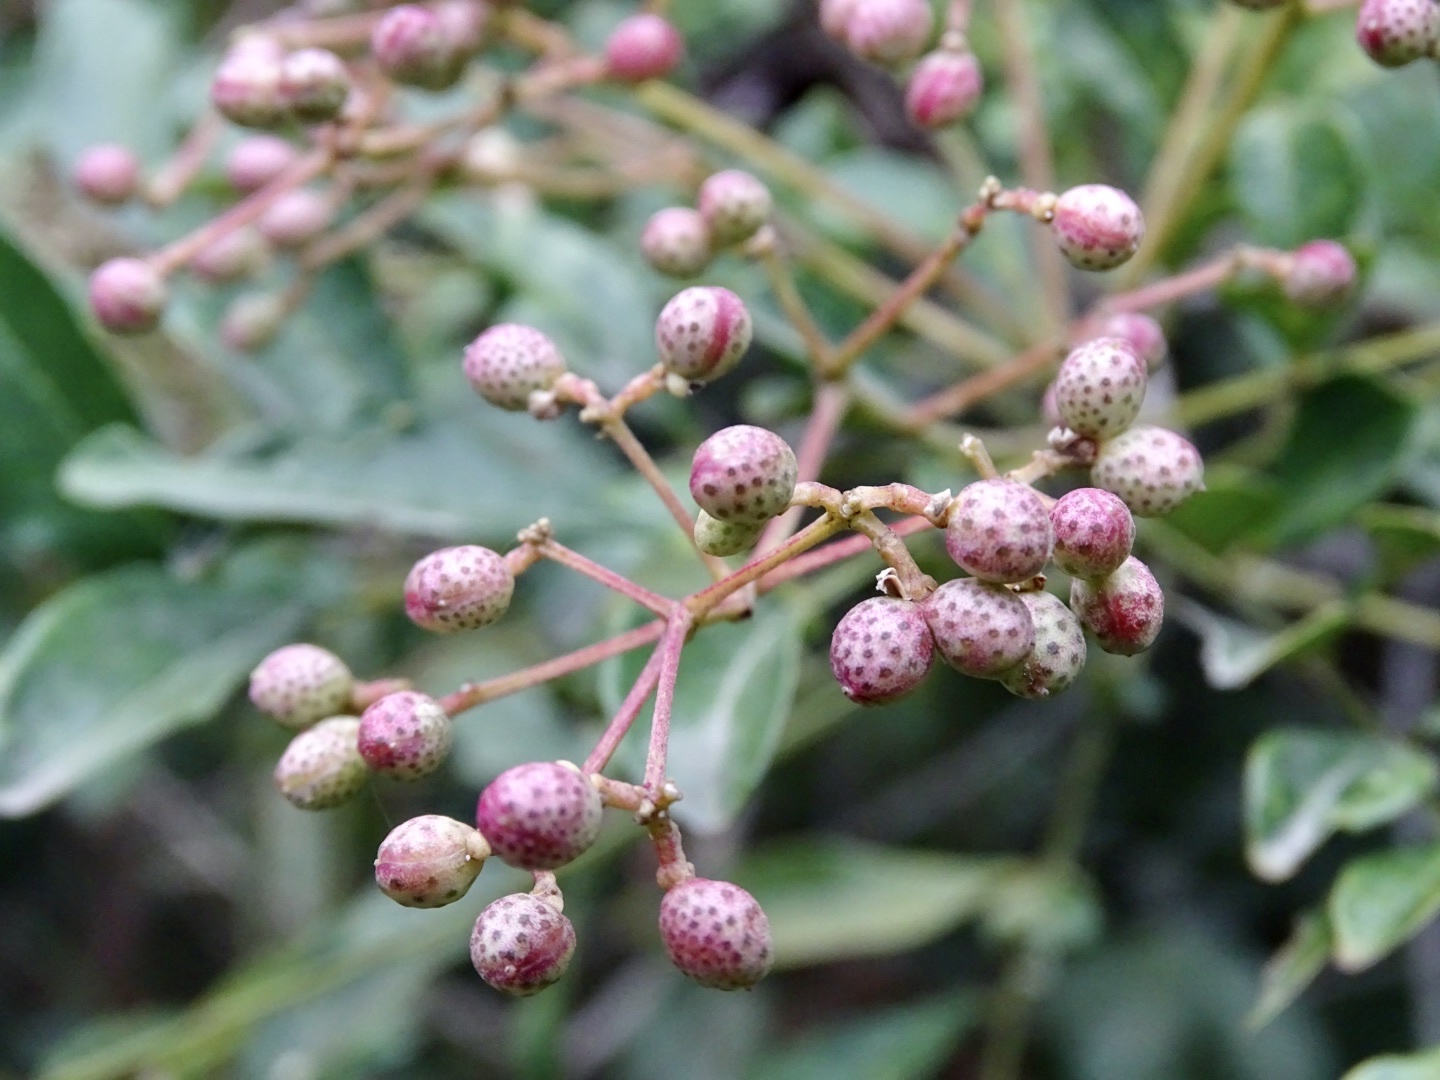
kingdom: Plantae
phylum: Tracheophyta
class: Magnoliopsida
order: Sapindales
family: Rutaceae
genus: Zanthoxylum
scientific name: Zanthoxylum avicennae
